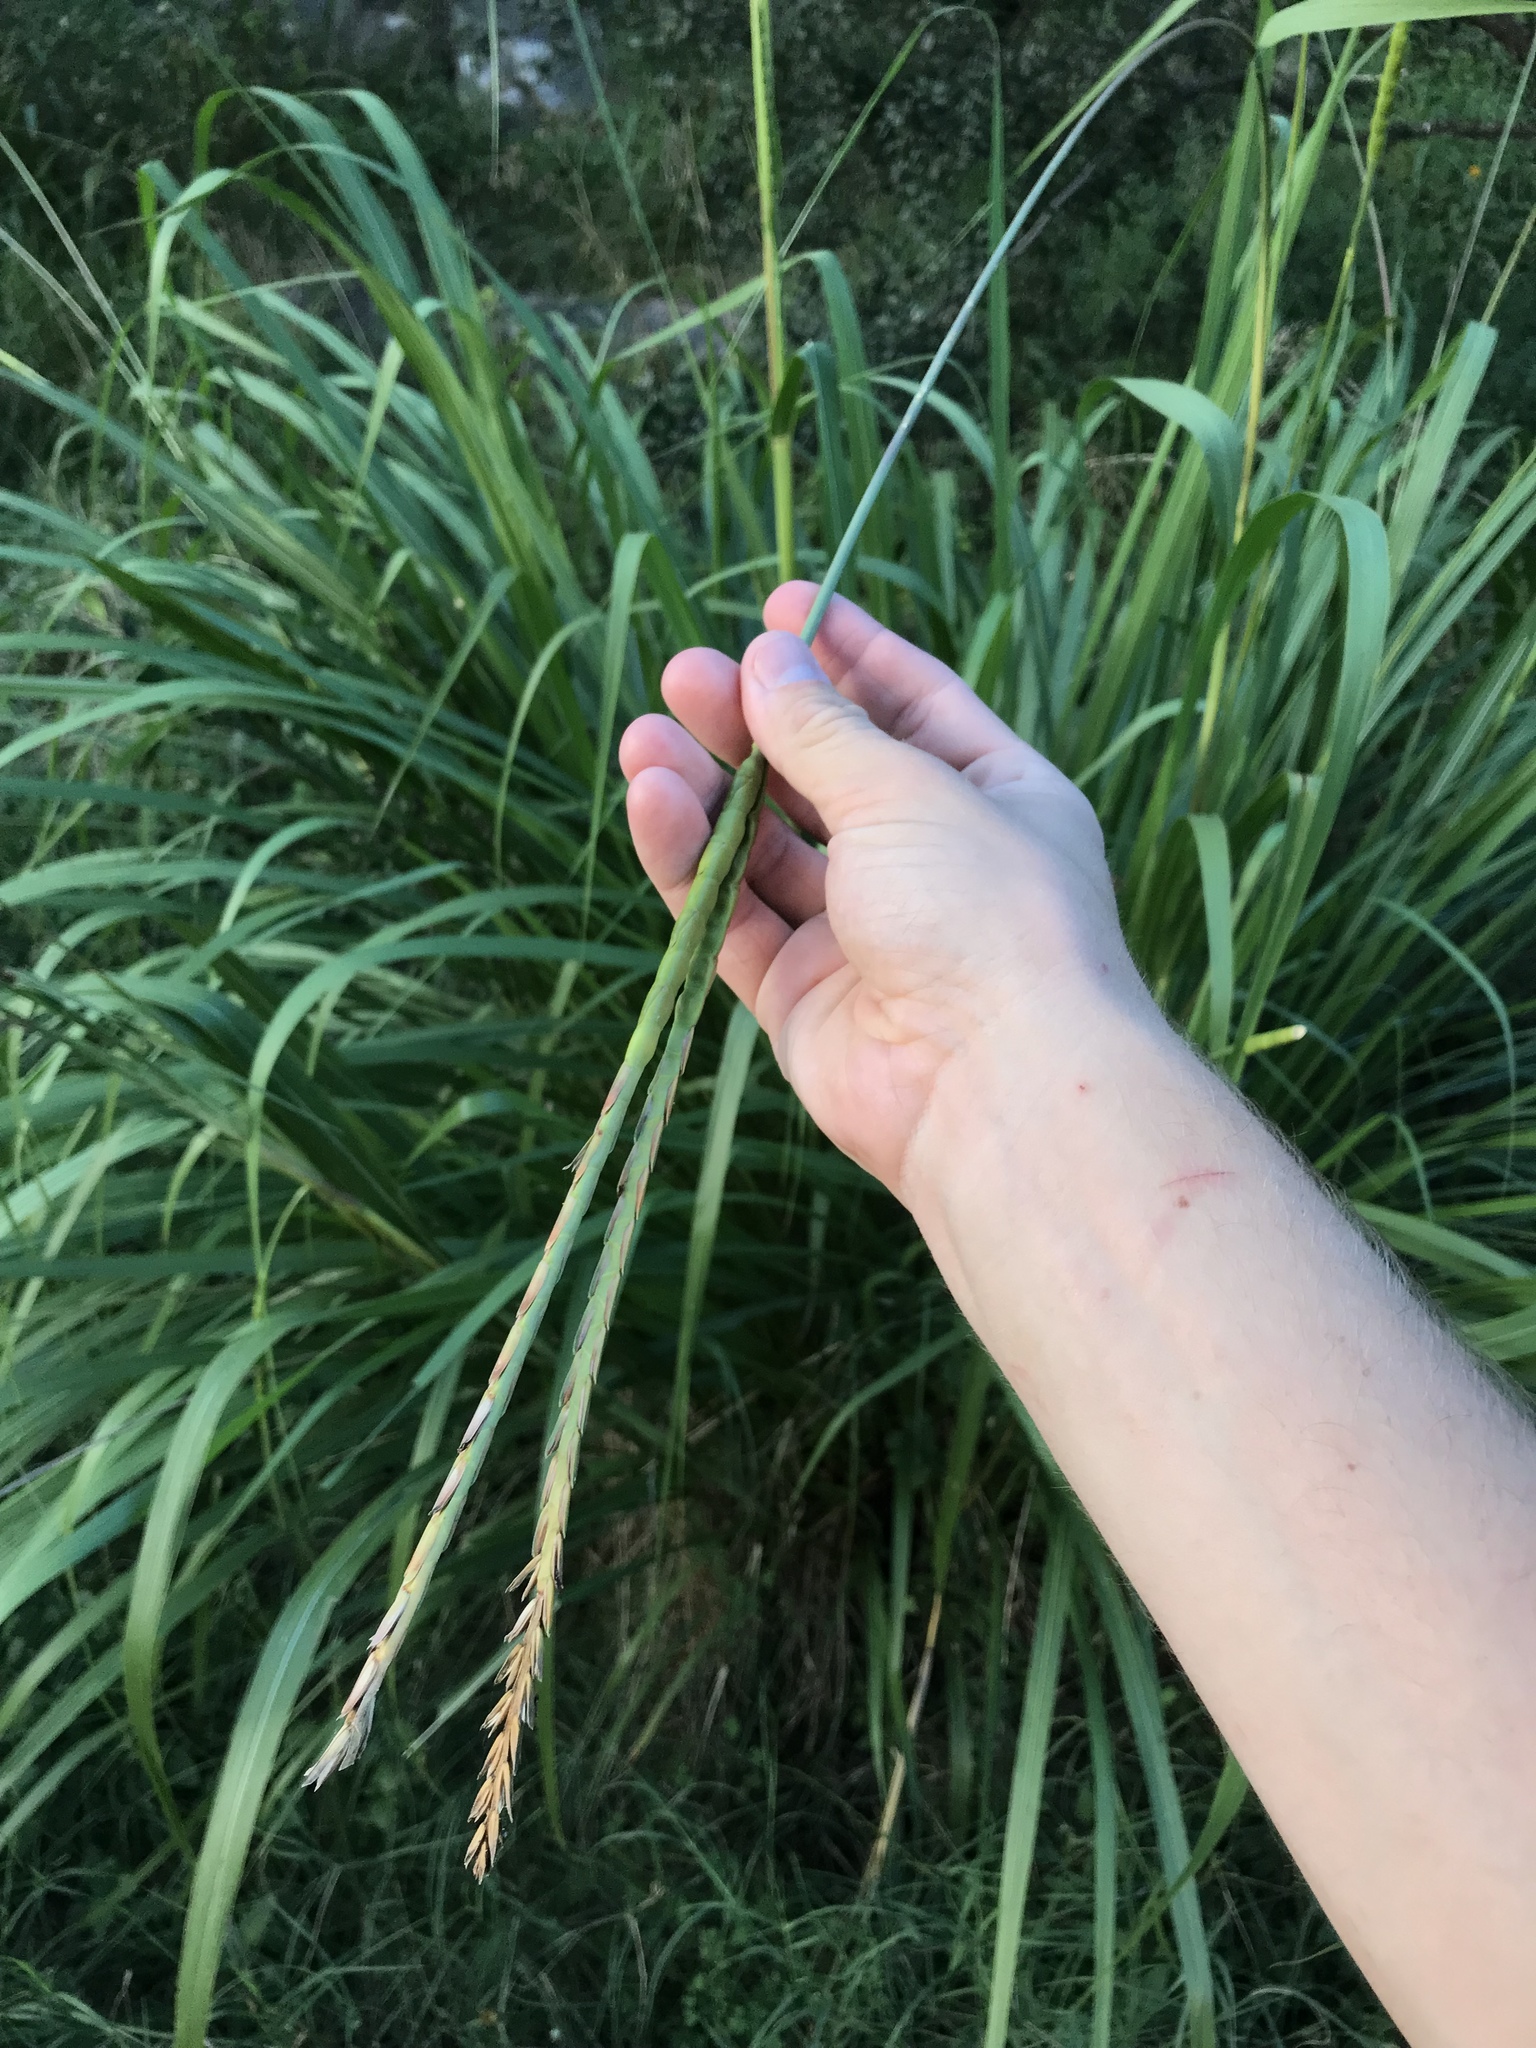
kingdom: Plantae
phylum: Tracheophyta
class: Liliopsida
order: Poales
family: Poaceae
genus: Tripsacum
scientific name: Tripsacum dactyloides
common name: Buffalo-grass
